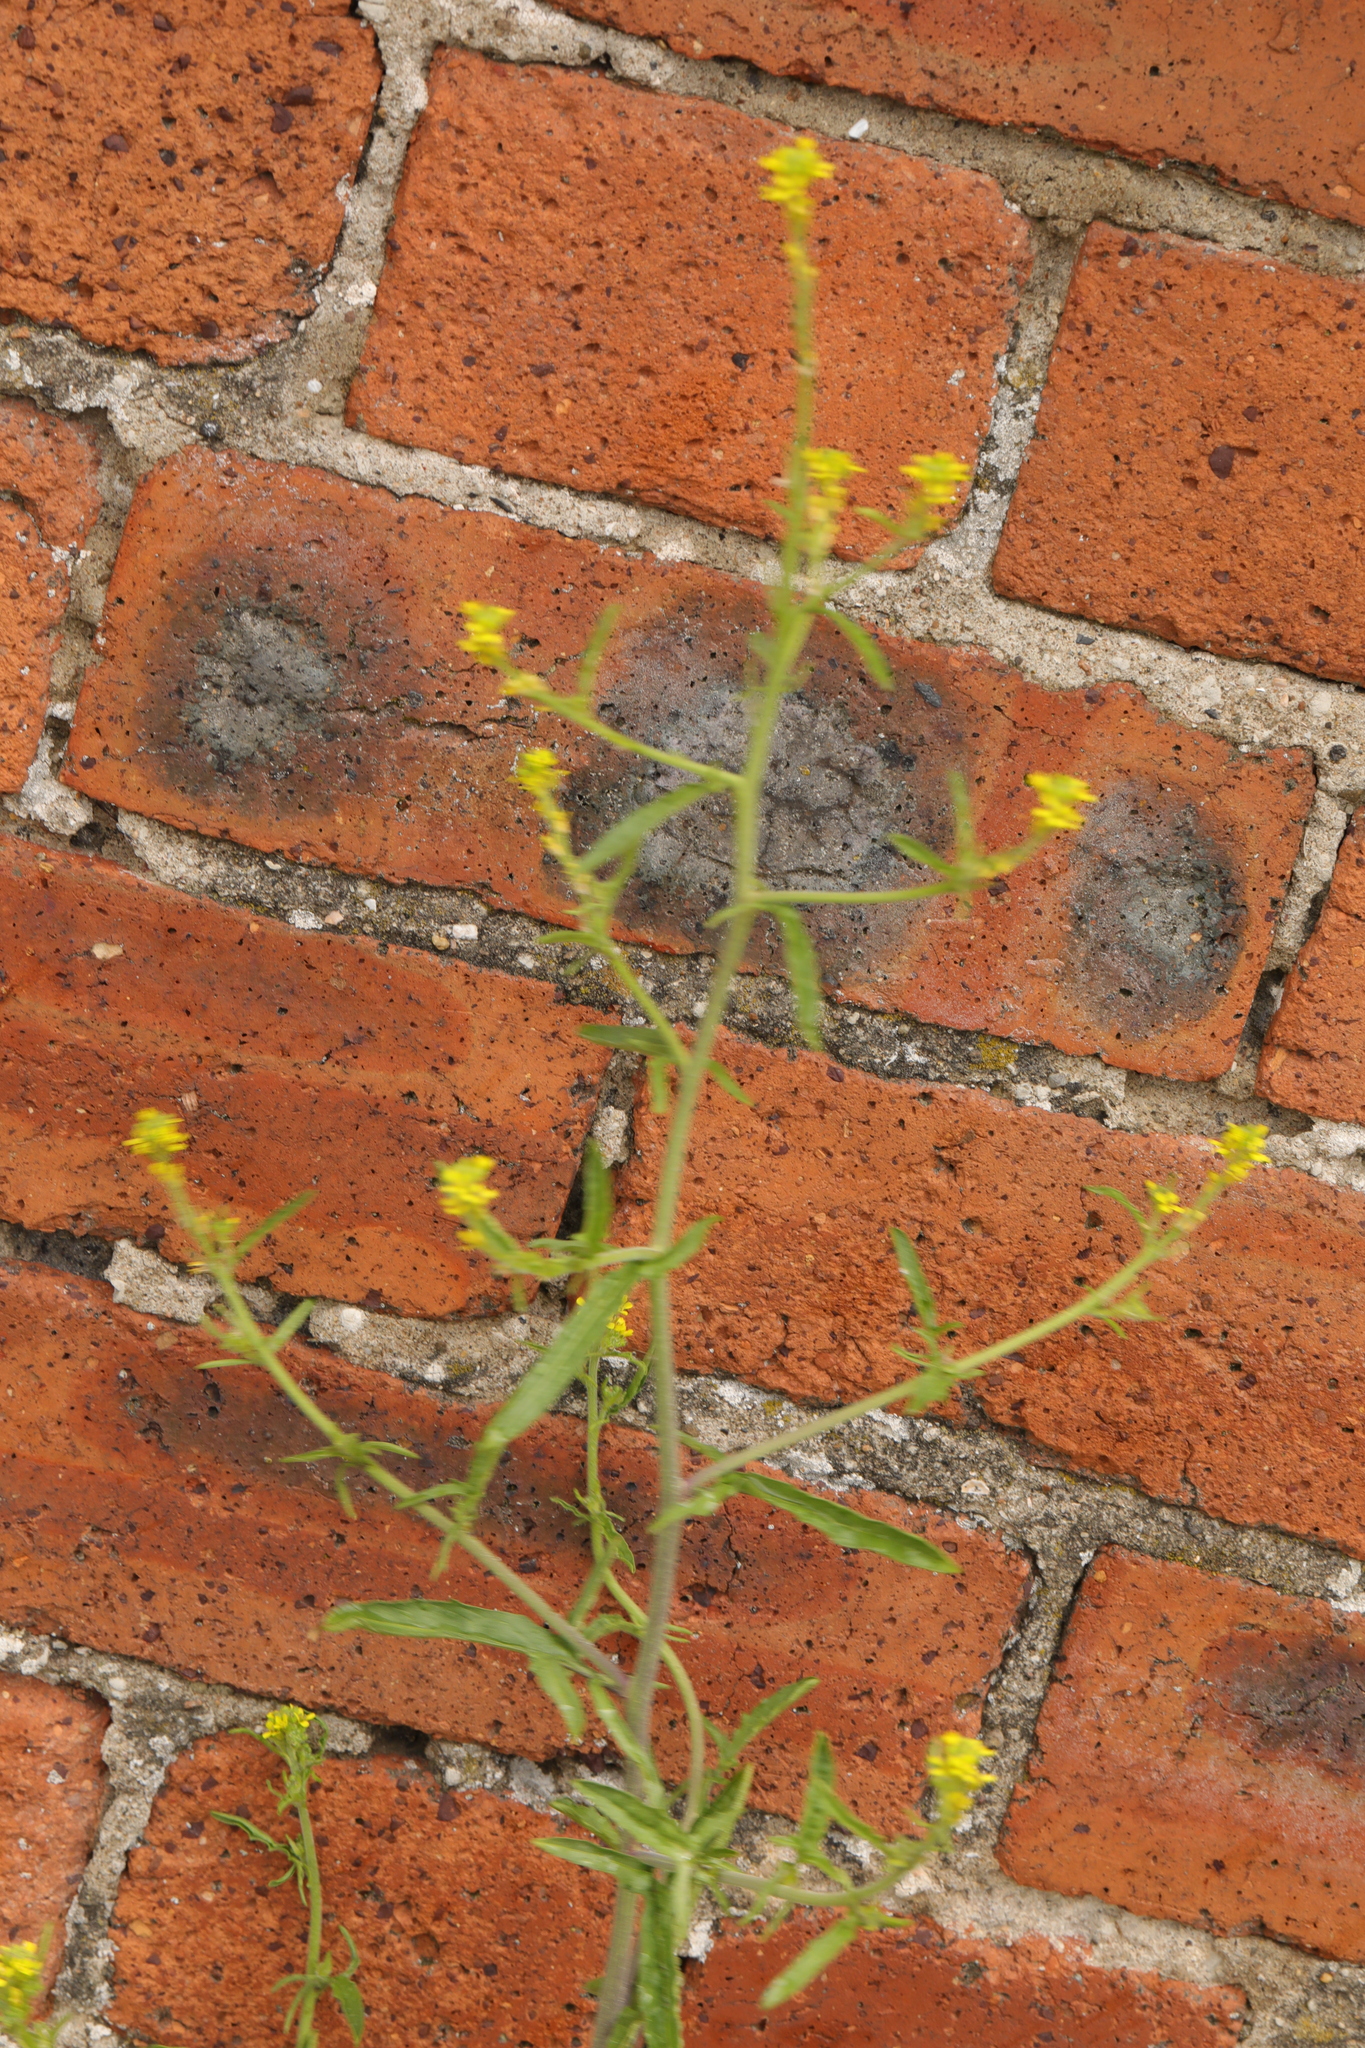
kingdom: Plantae
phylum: Tracheophyta
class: Magnoliopsida
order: Brassicales
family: Brassicaceae
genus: Sisymbrium
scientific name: Sisymbrium officinale
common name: Hedge mustard
